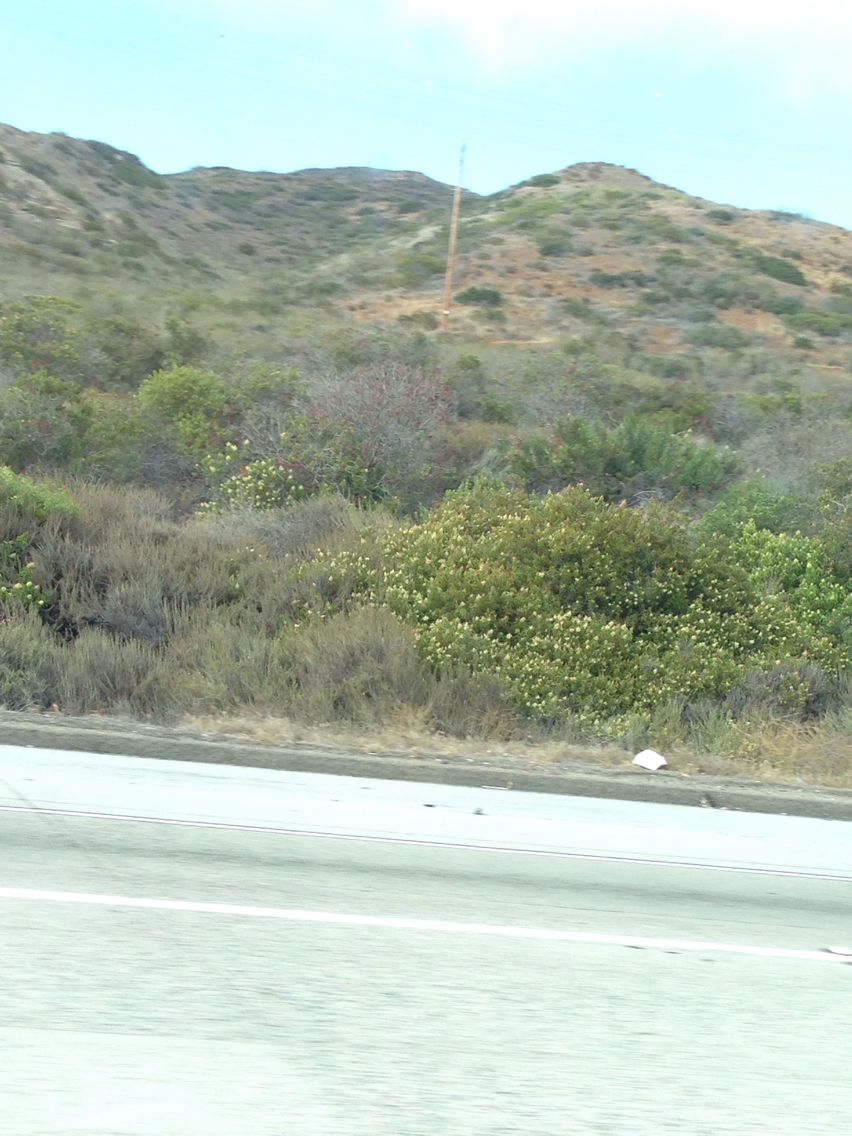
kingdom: Plantae
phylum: Tracheophyta
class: Magnoliopsida
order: Asterales
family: Asteraceae
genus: Artemisia
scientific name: Artemisia californica
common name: California sagebrush
